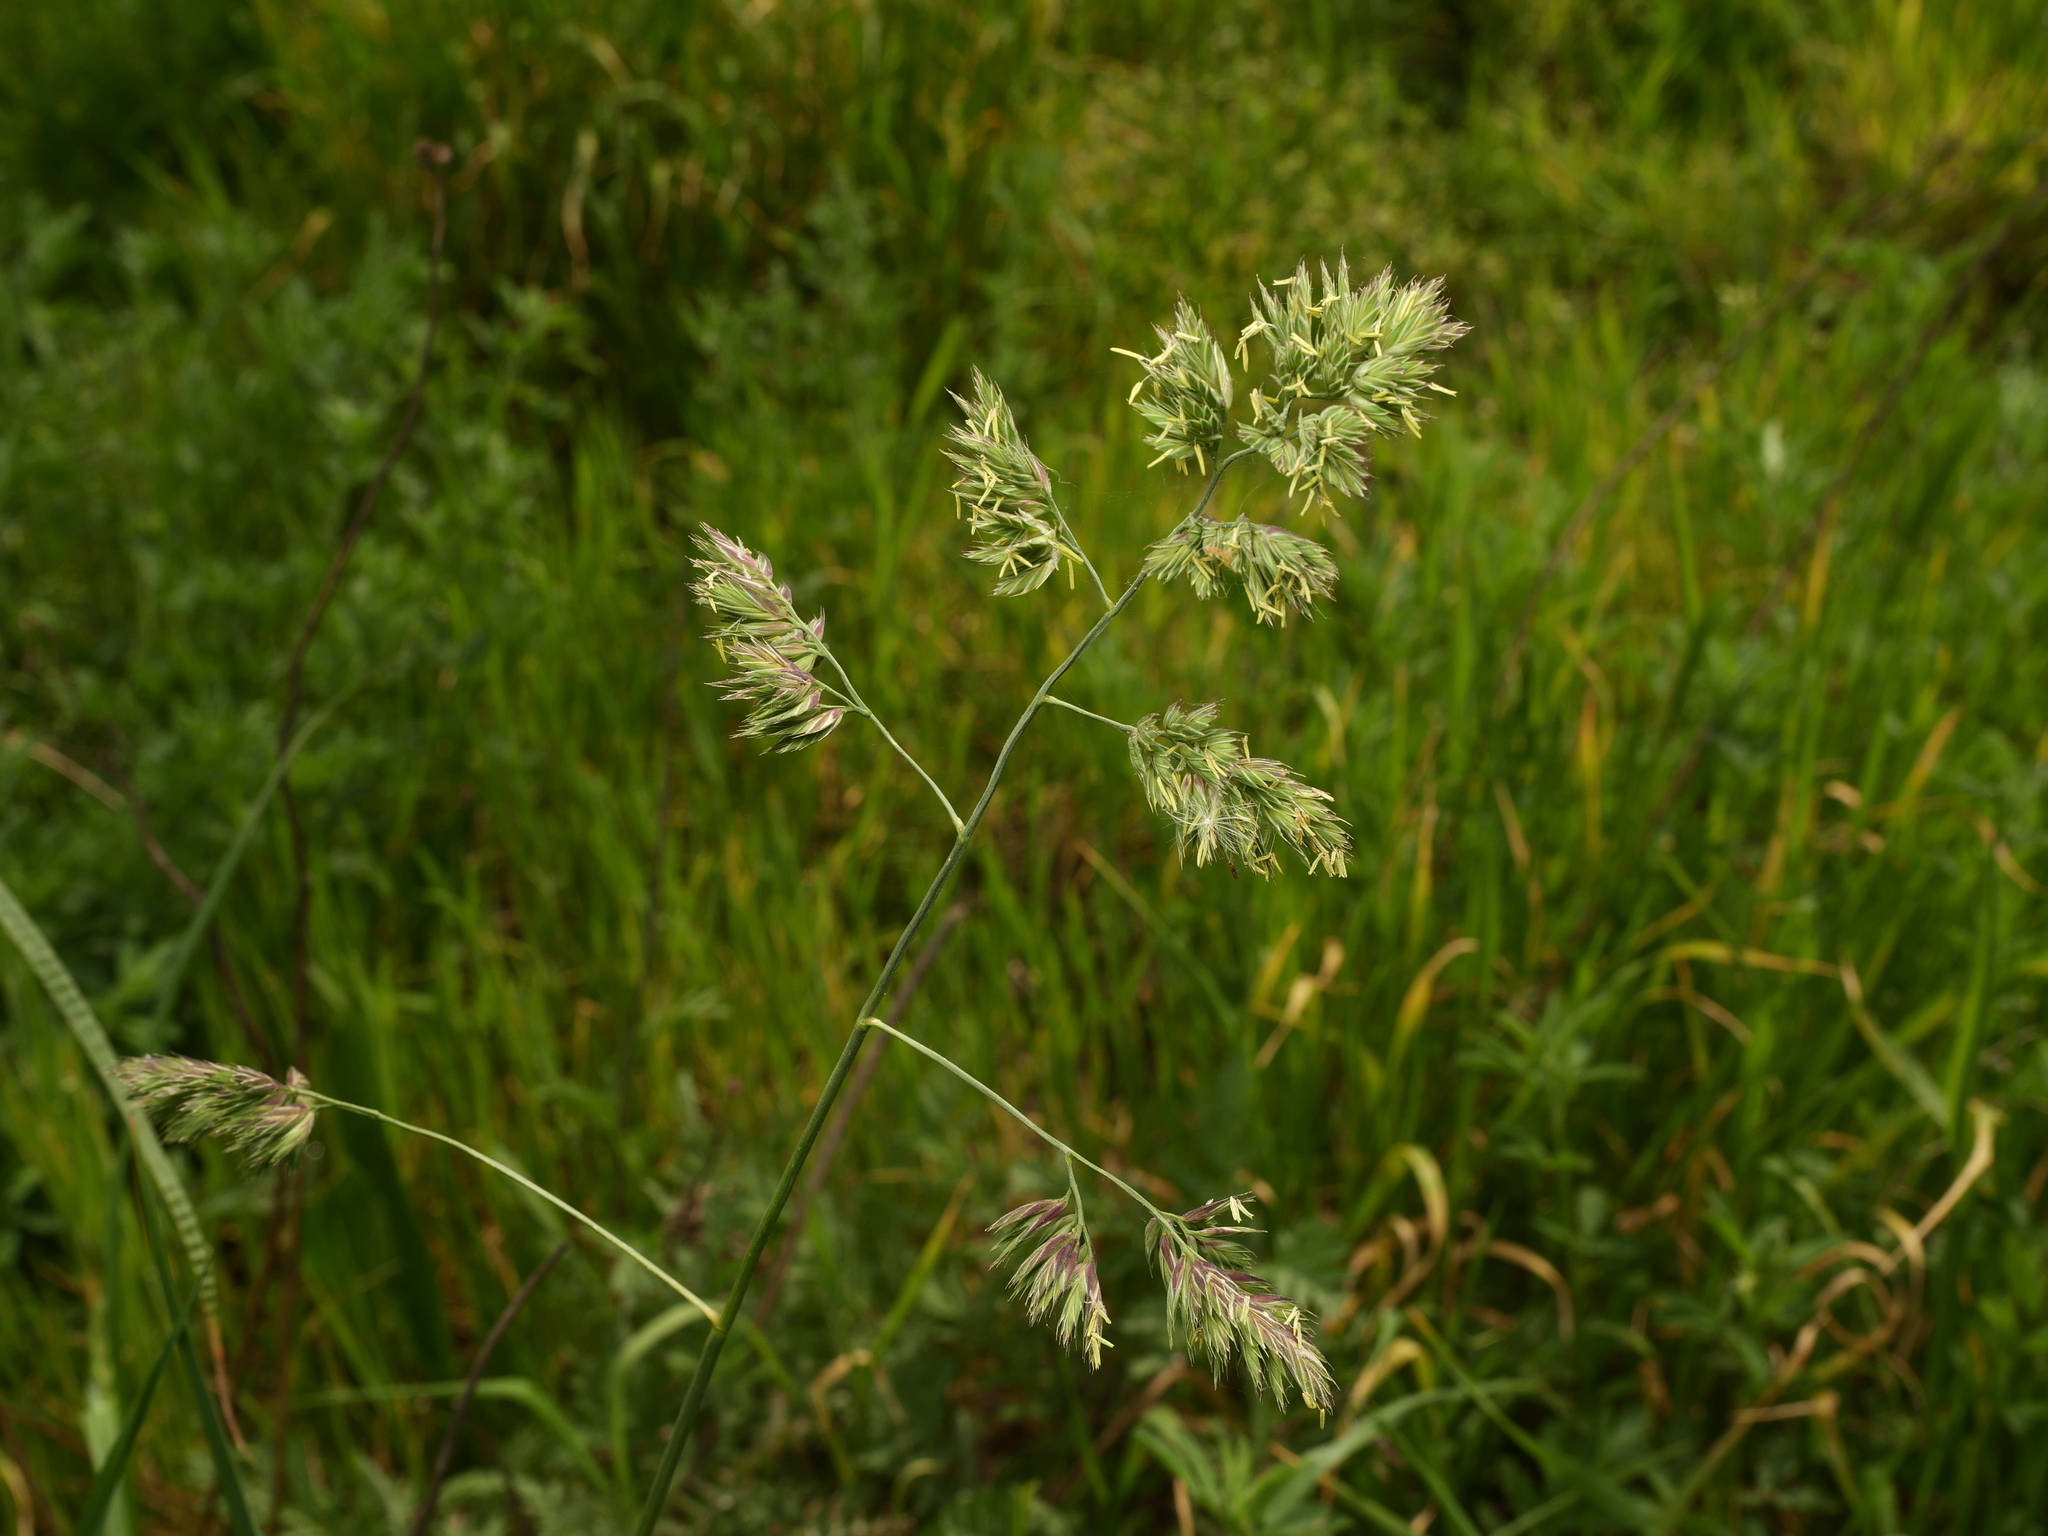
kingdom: Plantae
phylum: Tracheophyta
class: Liliopsida
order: Poales
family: Poaceae
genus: Dactylis
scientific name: Dactylis glomerata
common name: Orchardgrass
